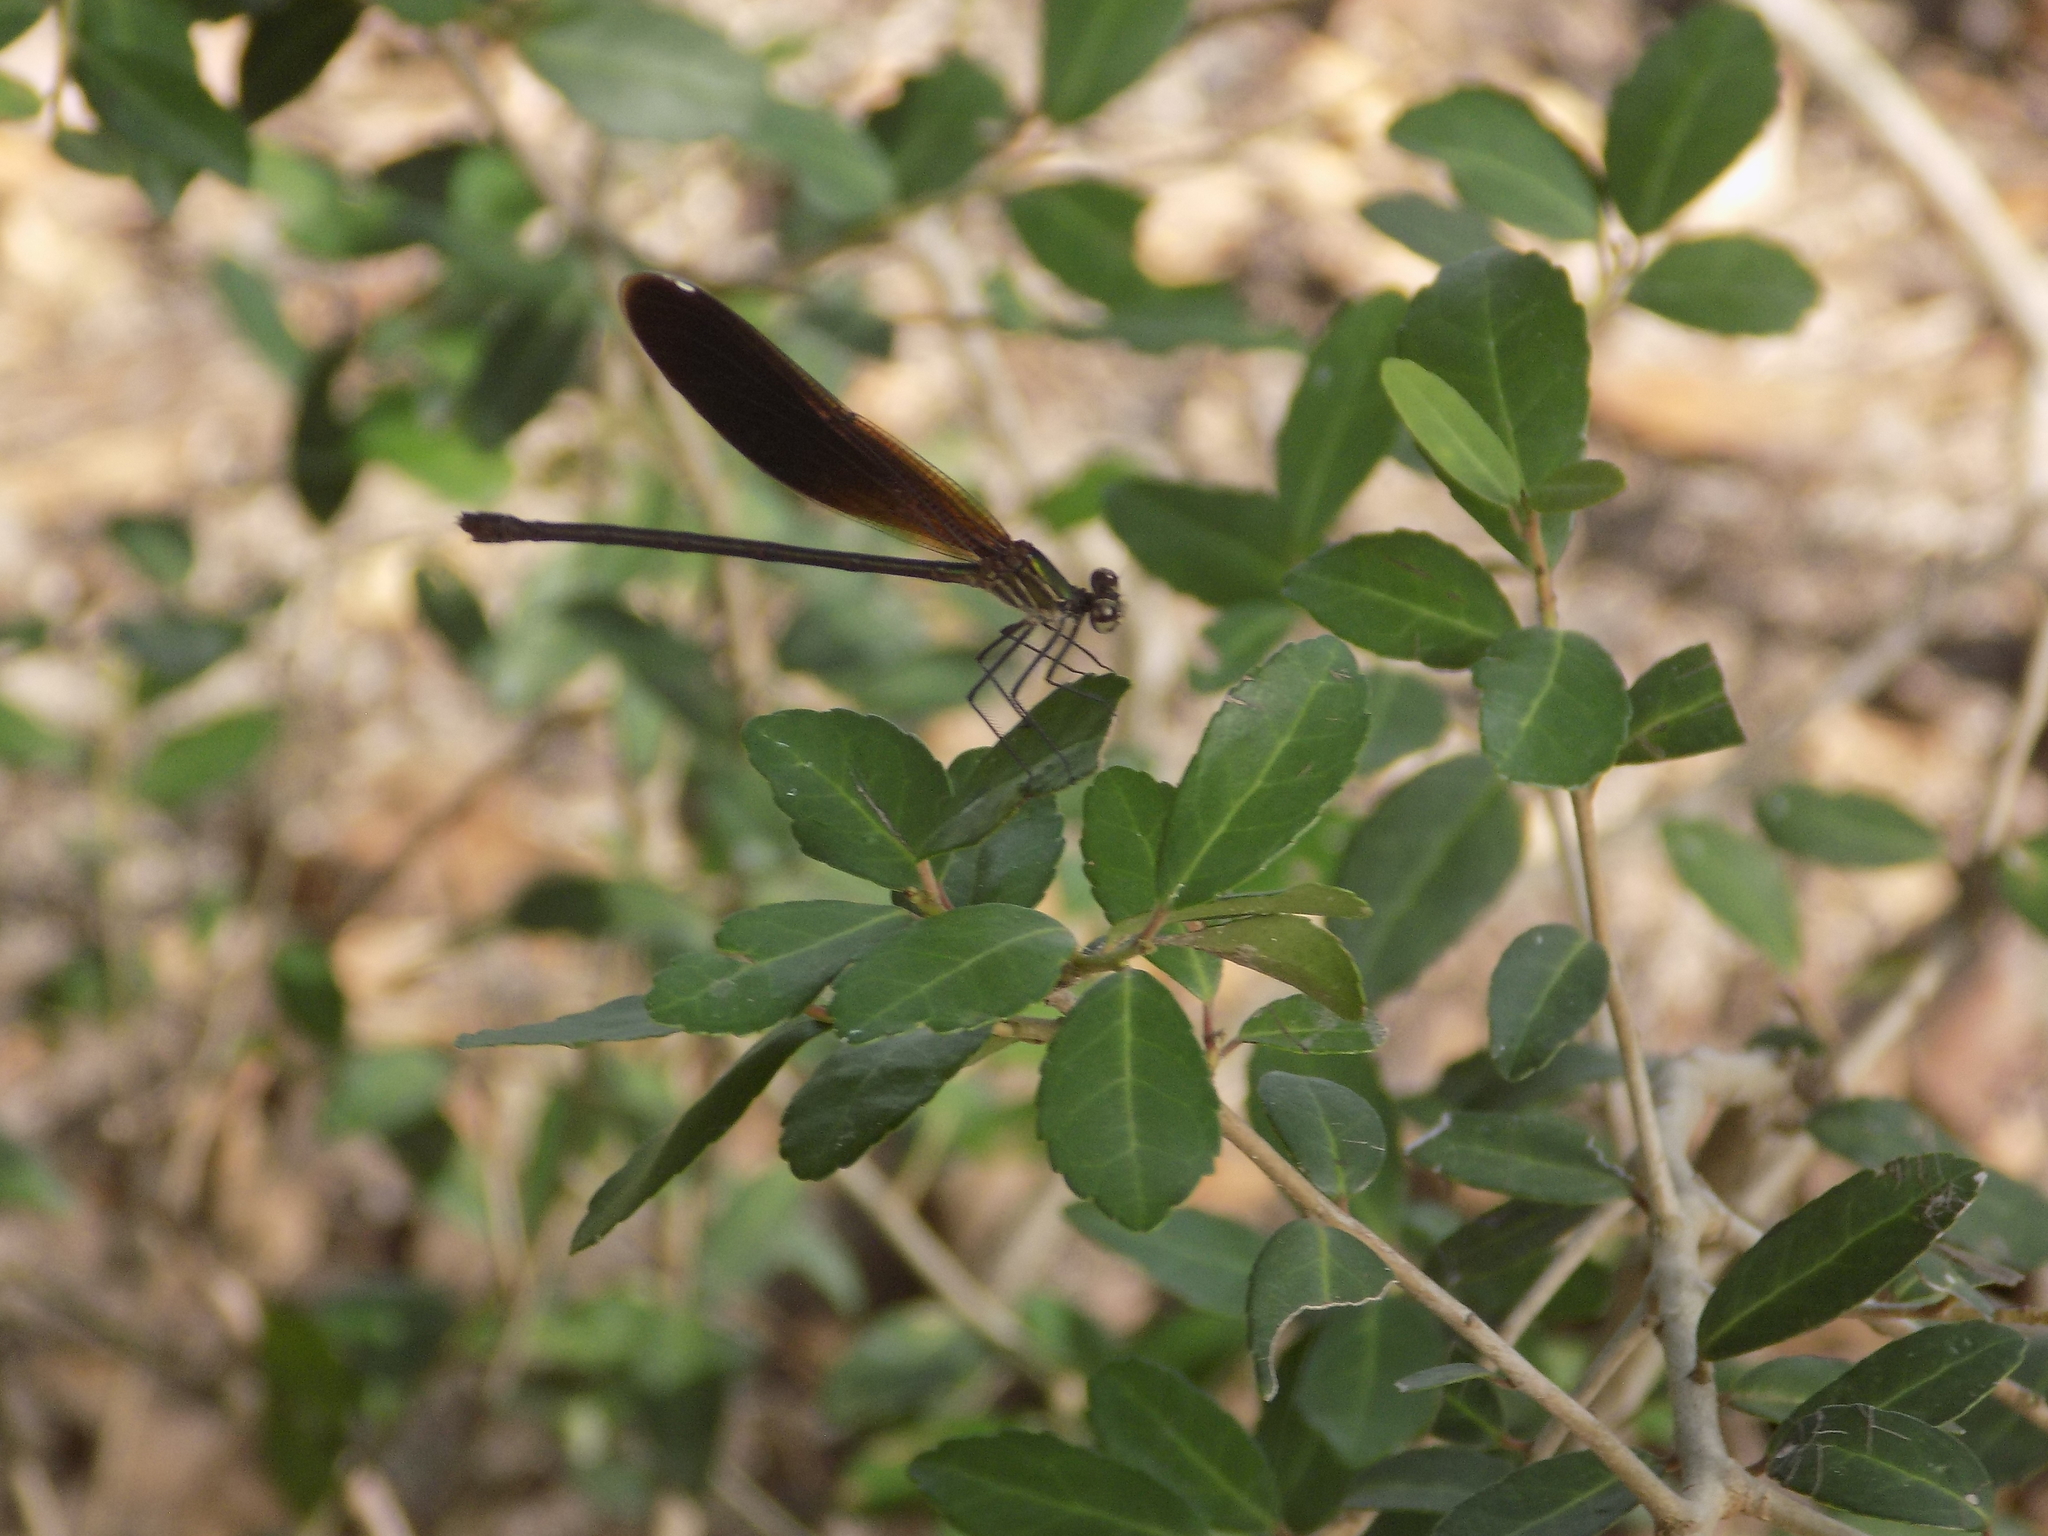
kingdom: Animalia
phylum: Arthropoda
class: Insecta
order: Odonata
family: Calopterygidae
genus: Hetaerina
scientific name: Hetaerina titia
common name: Smoky rubyspot
